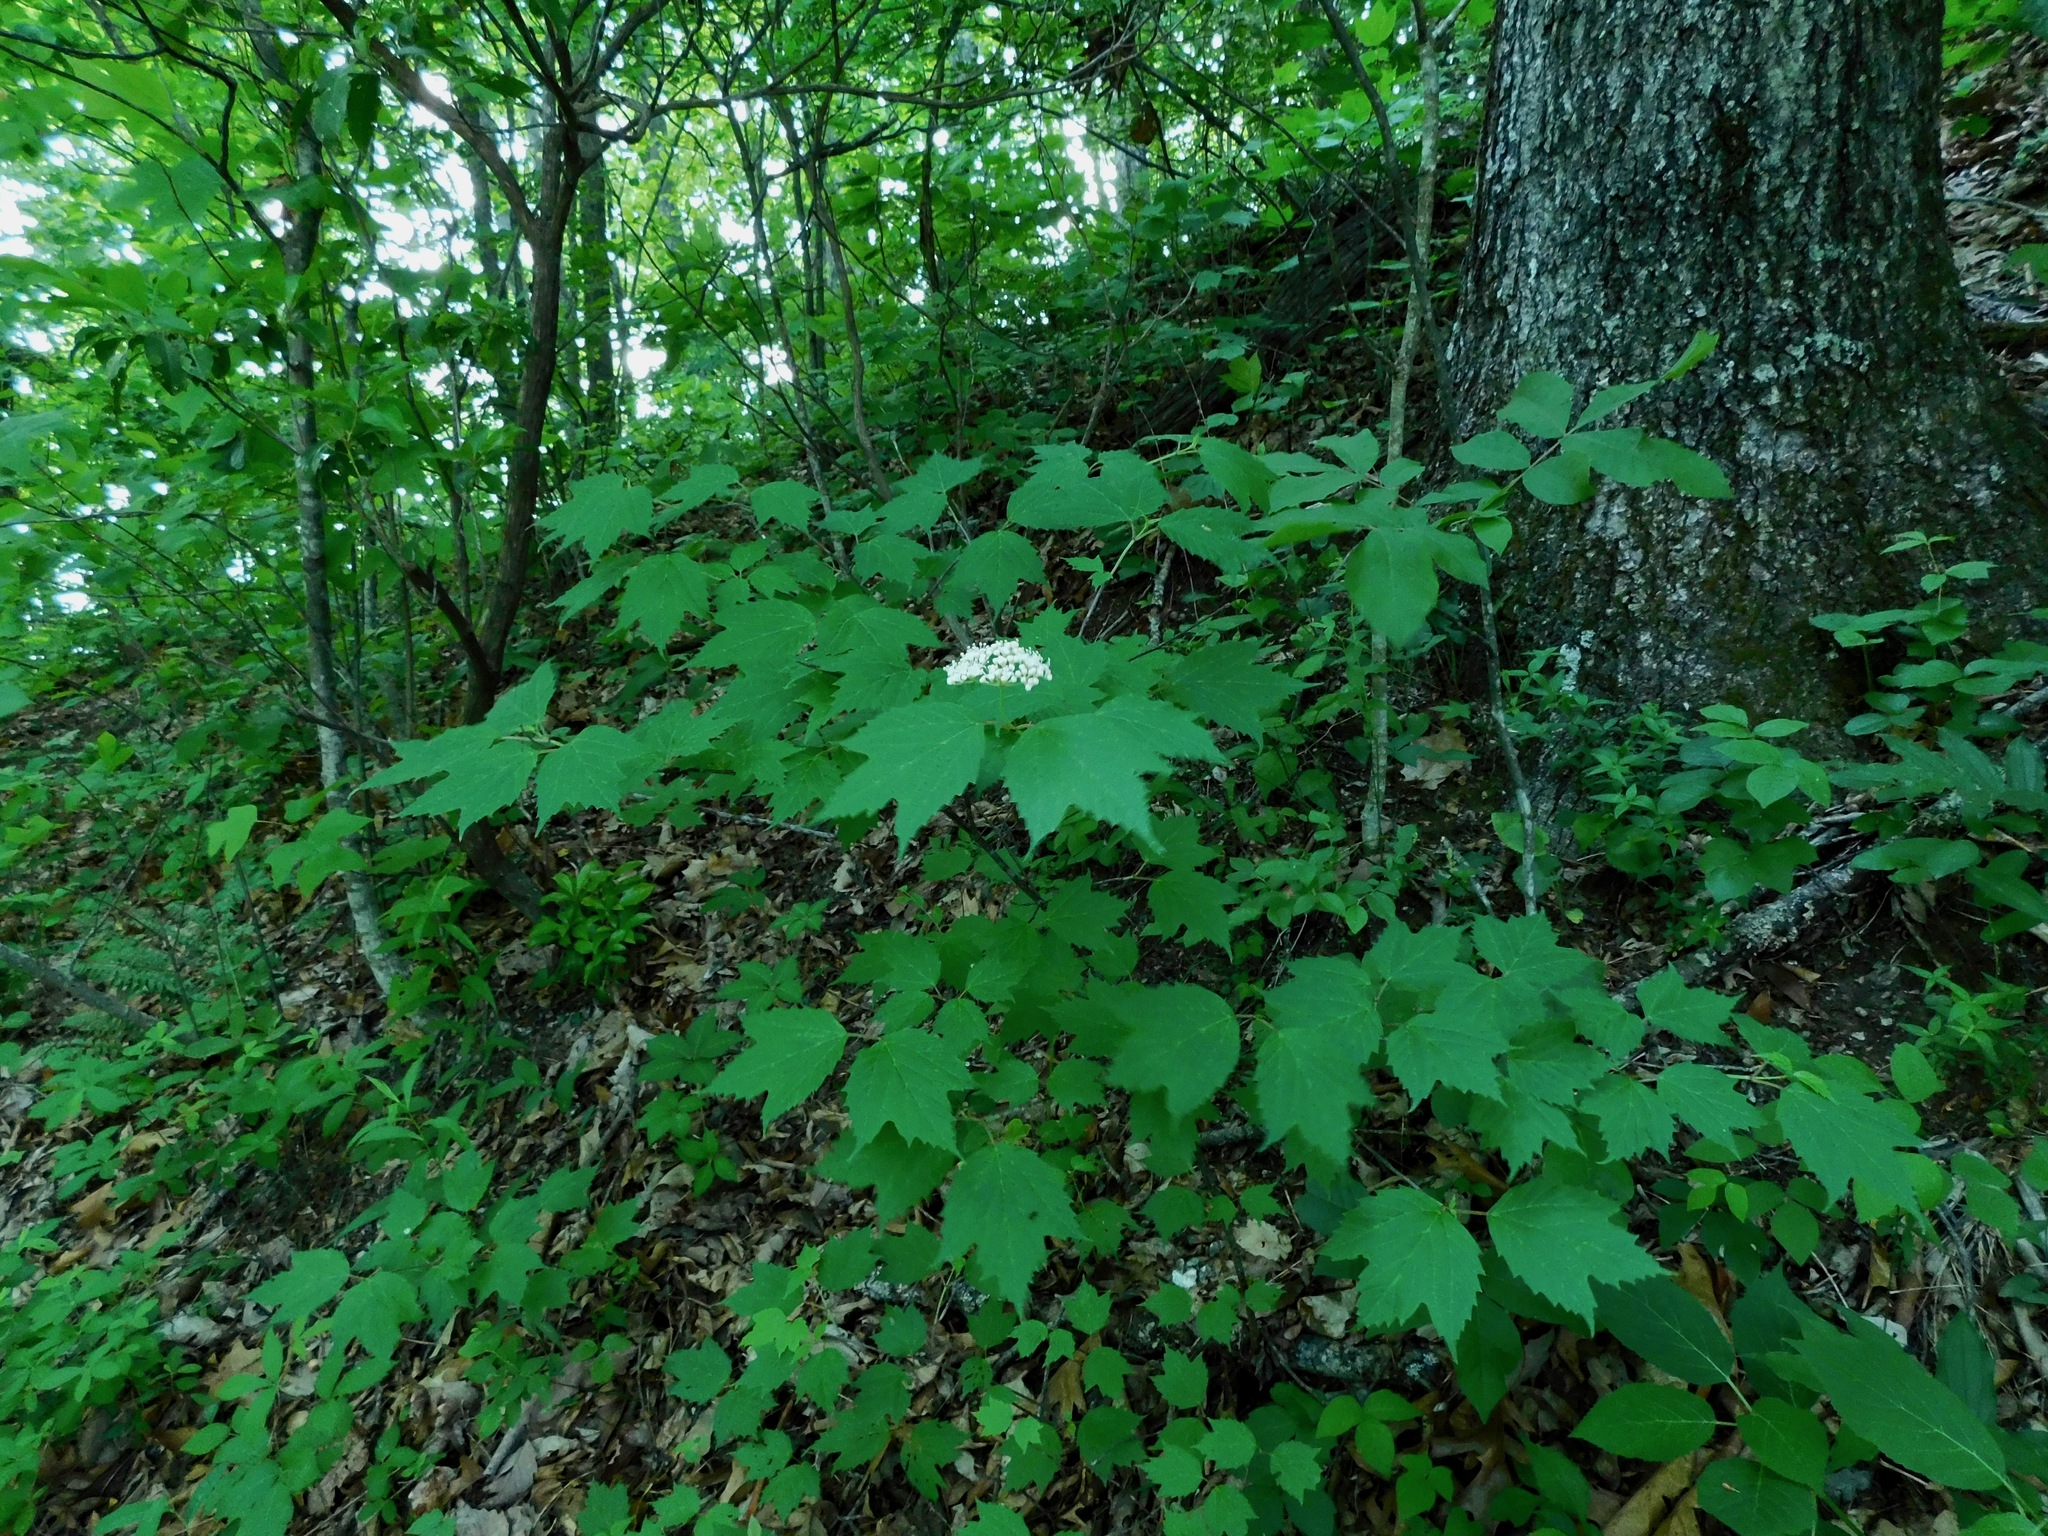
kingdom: Plantae
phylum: Tracheophyta
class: Magnoliopsida
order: Dipsacales
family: Viburnaceae
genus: Viburnum
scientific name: Viburnum acerifolium
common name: Dockmackie
